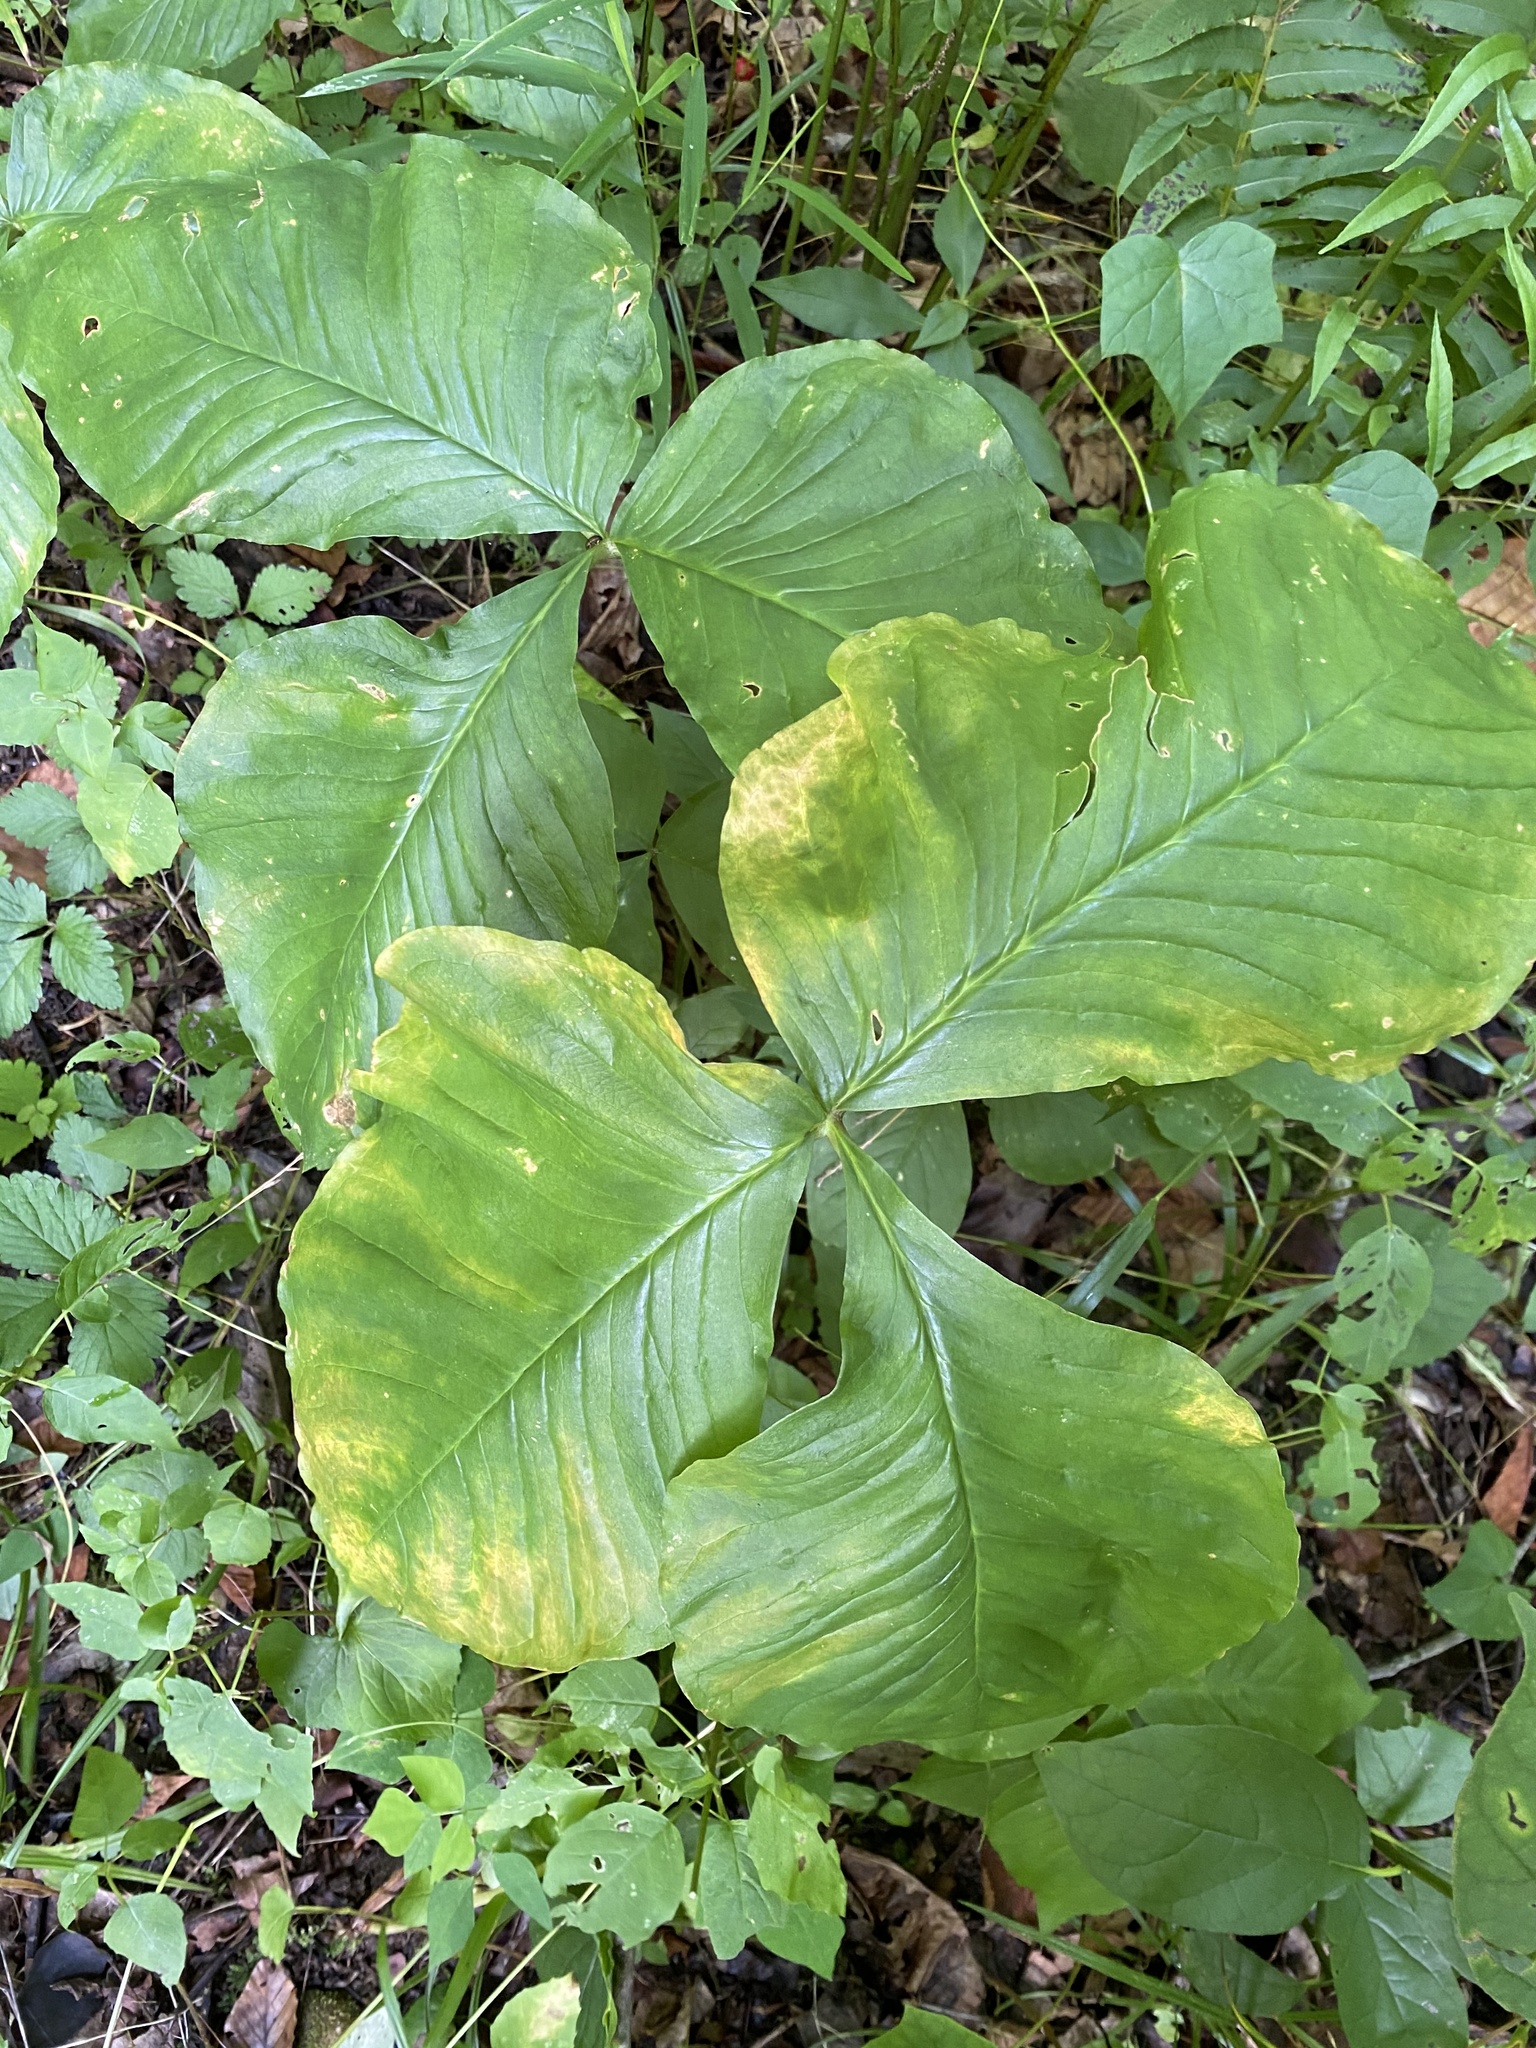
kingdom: Plantae
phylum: Tracheophyta
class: Liliopsida
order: Alismatales
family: Araceae
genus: Arisaema
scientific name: Arisaema triphyllum
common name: Jack-in-the-pulpit
